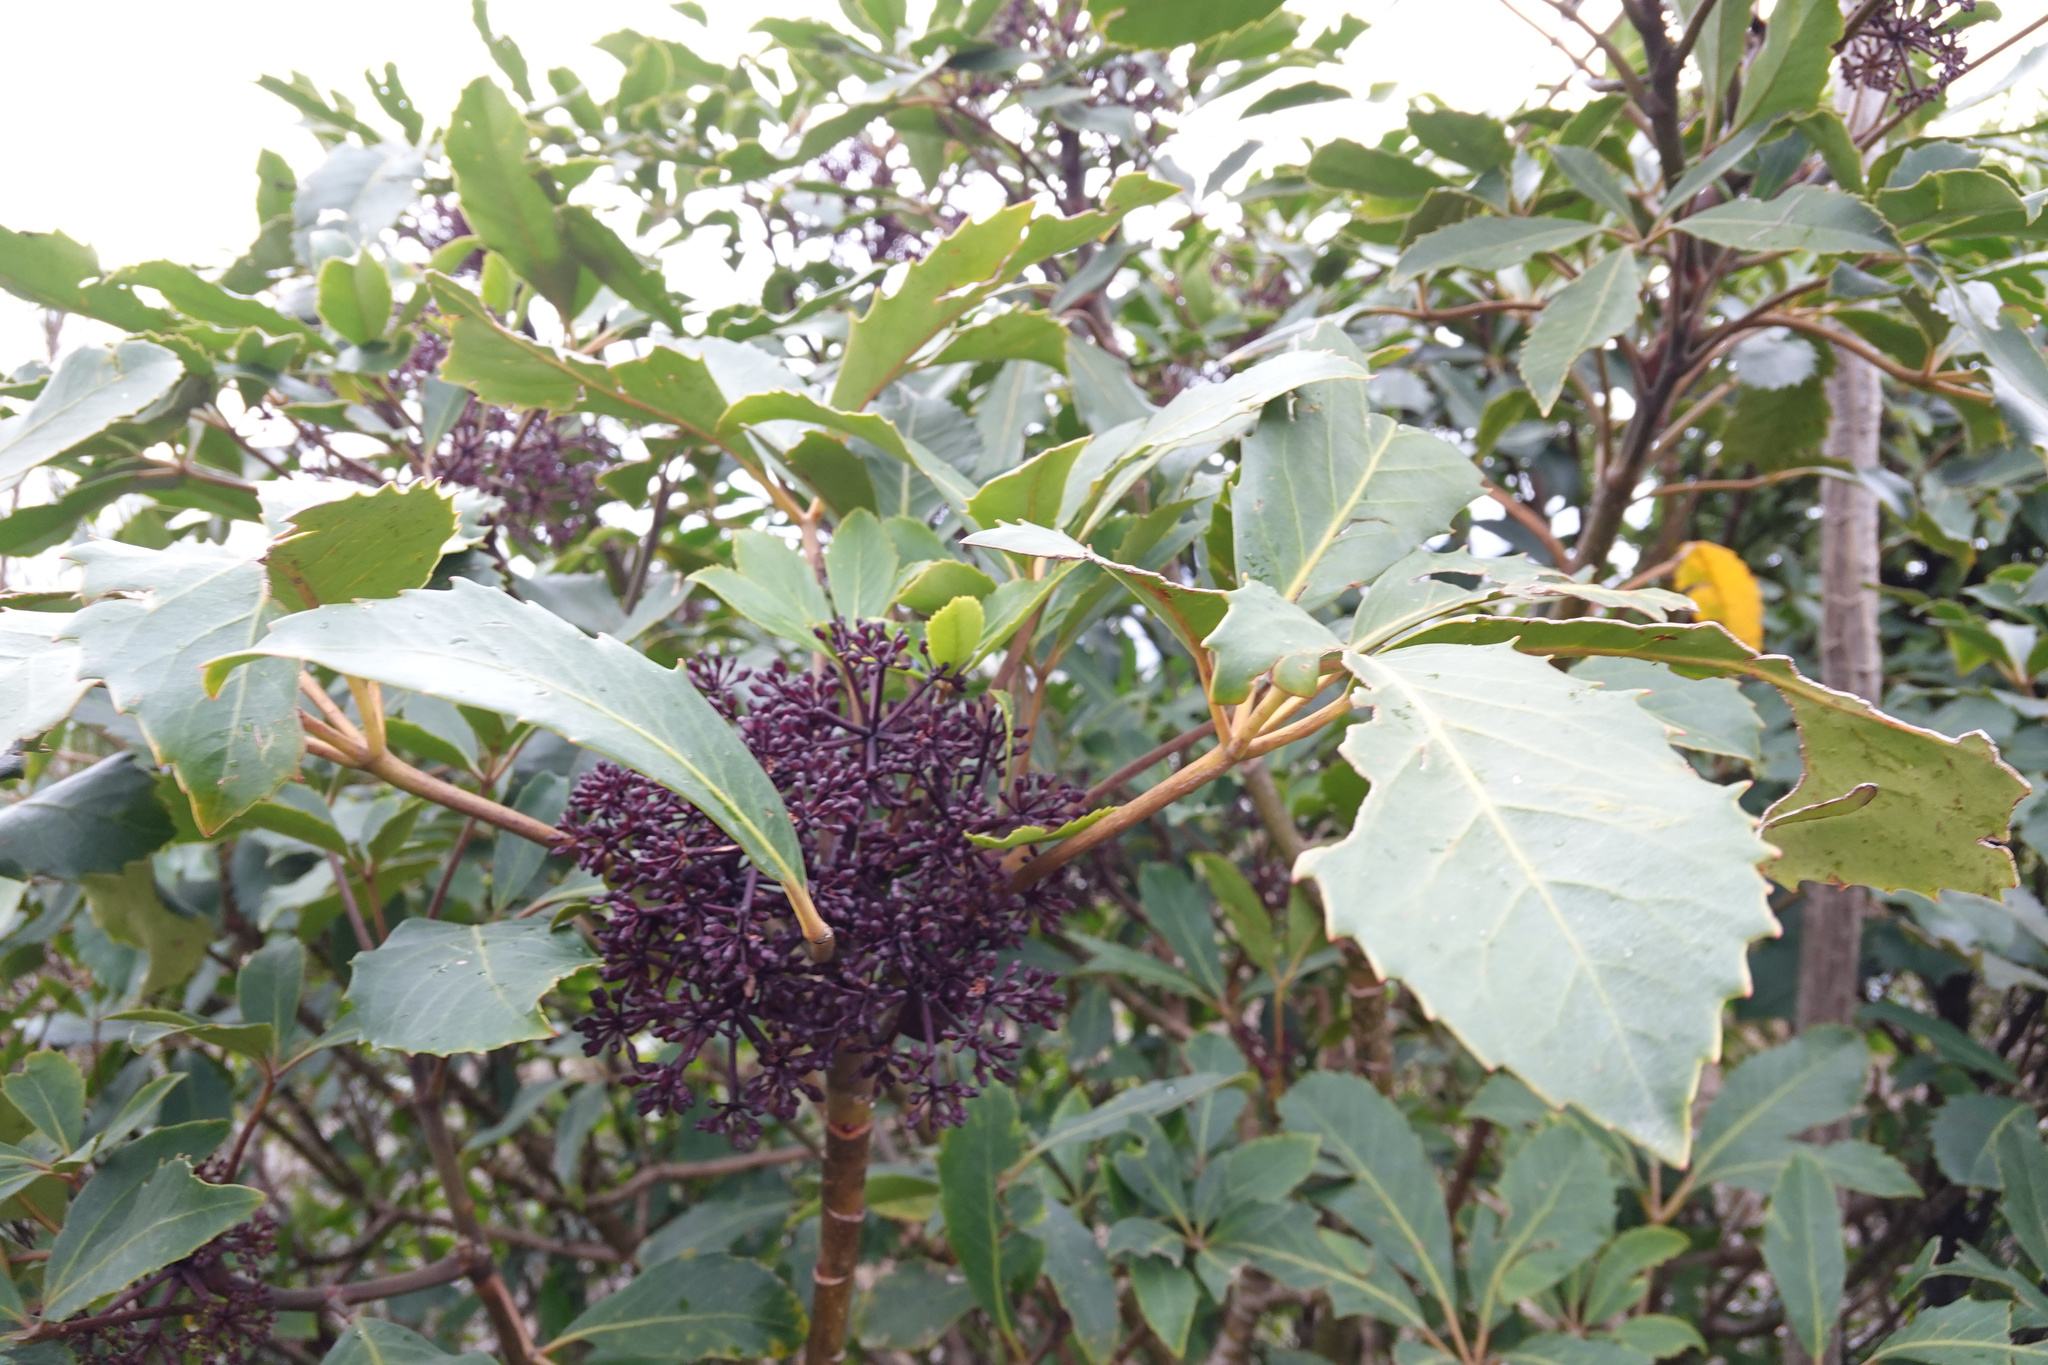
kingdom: Plantae
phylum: Tracheophyta
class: Magnoliopsida
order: Apiales
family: Araliaceae
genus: Neopanax
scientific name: Neopanax arboreus
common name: Five-fingers
